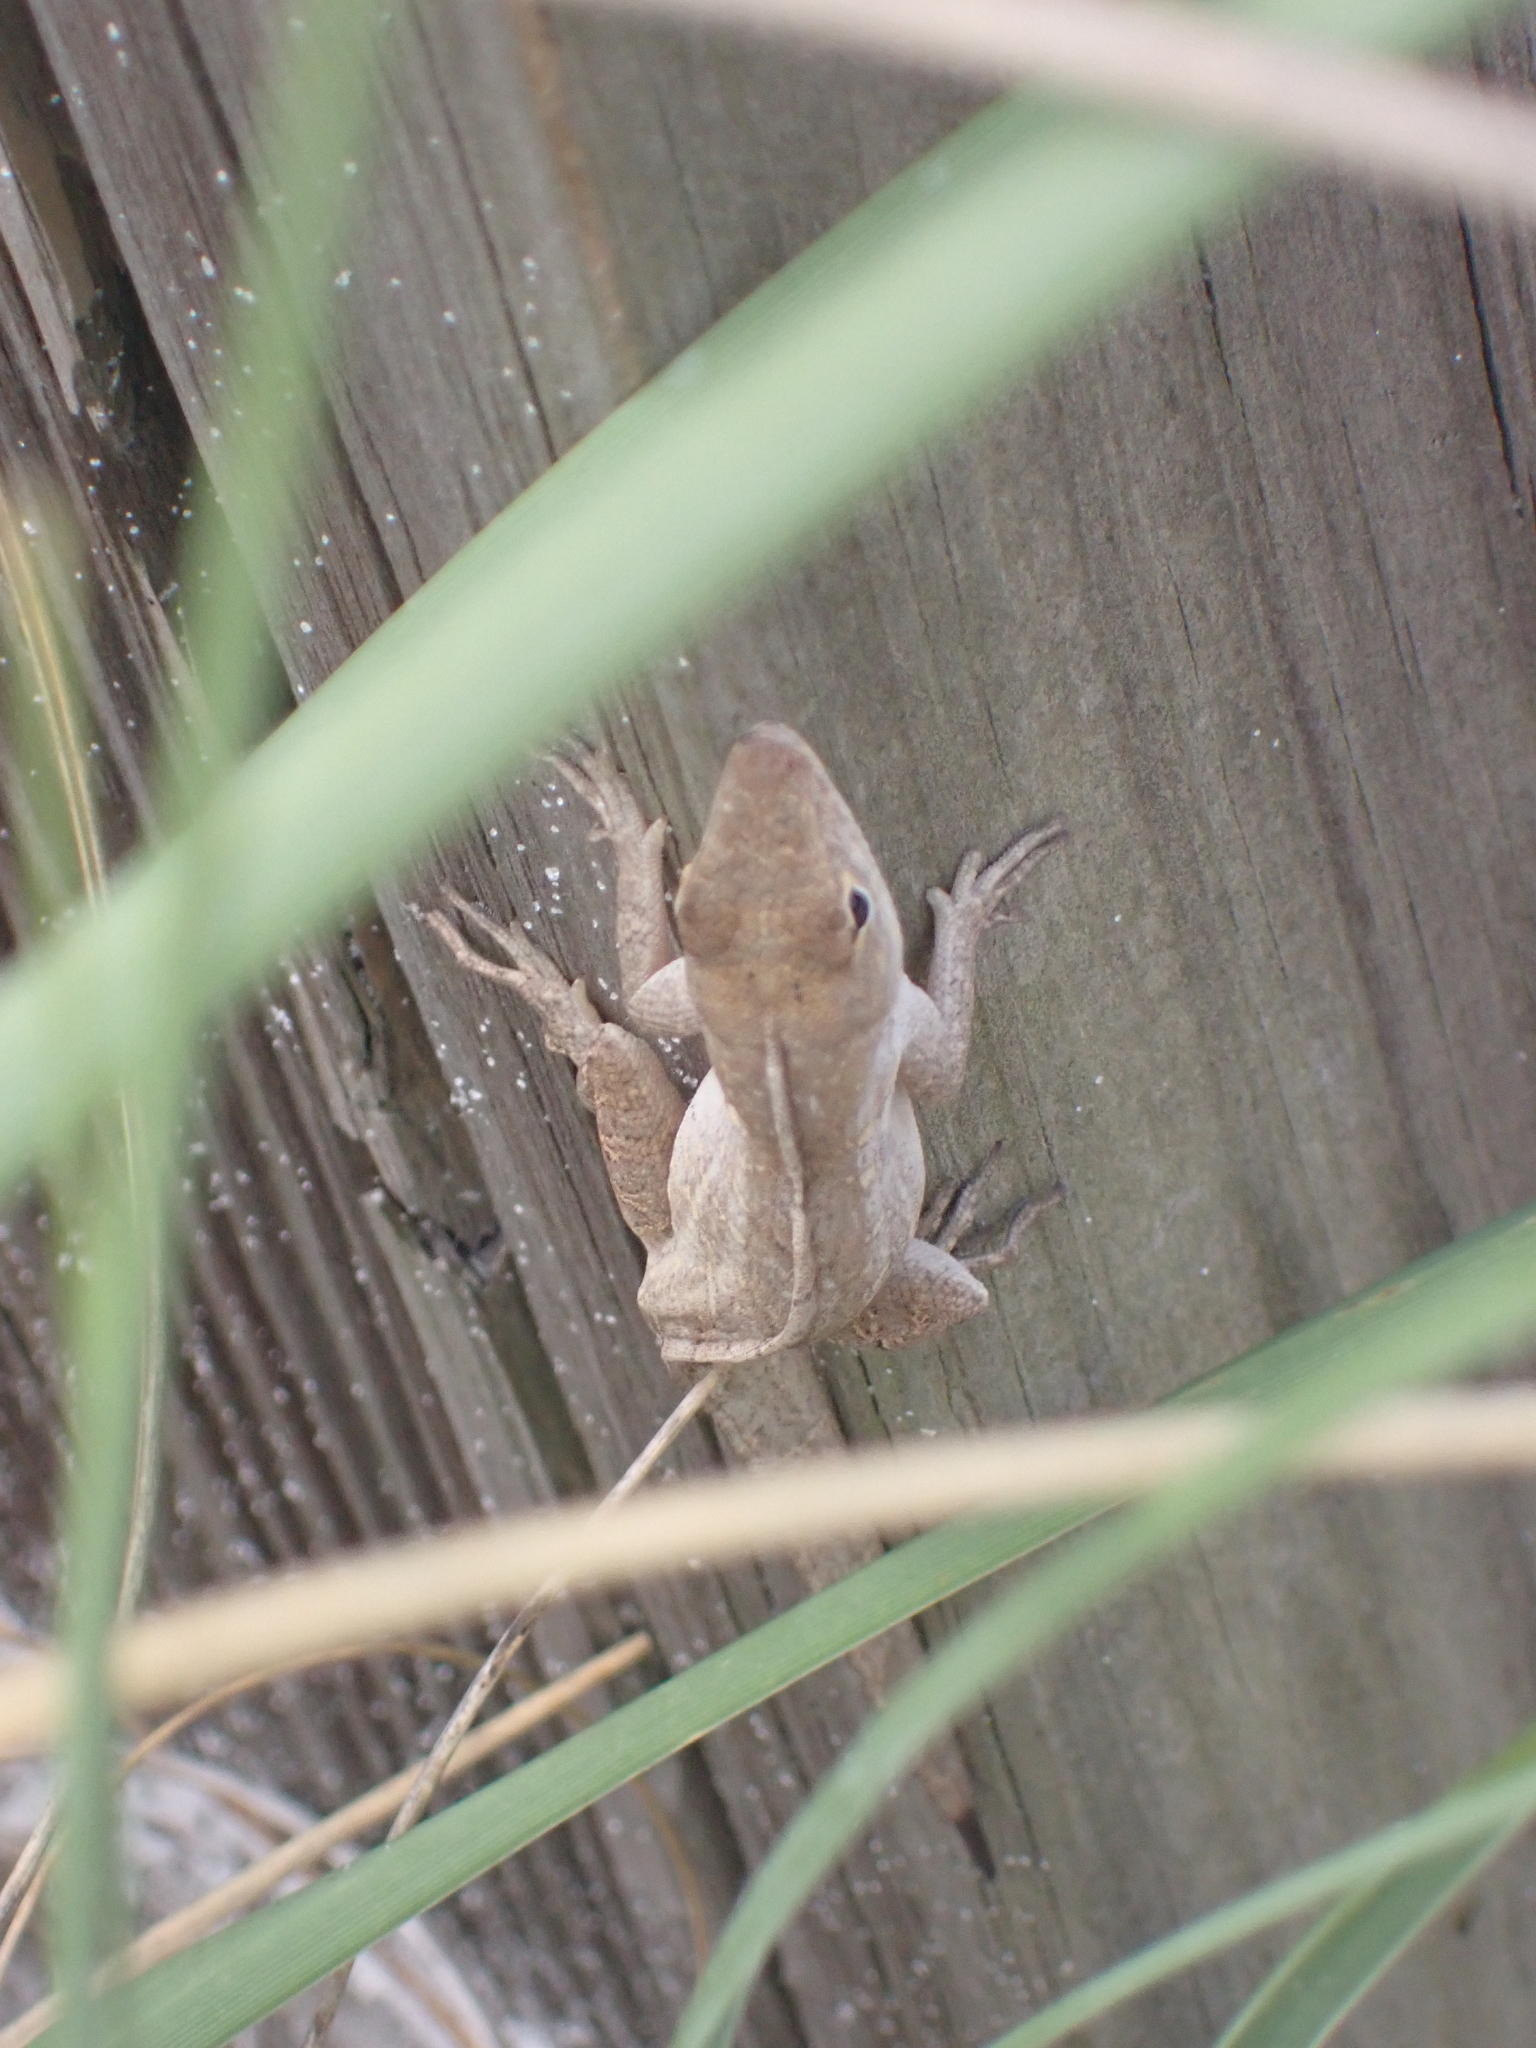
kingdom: Animalia
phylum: Chordata
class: Squamata
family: Dactyloidae
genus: Anolis
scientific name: Anolis sagrei
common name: Brown anole
